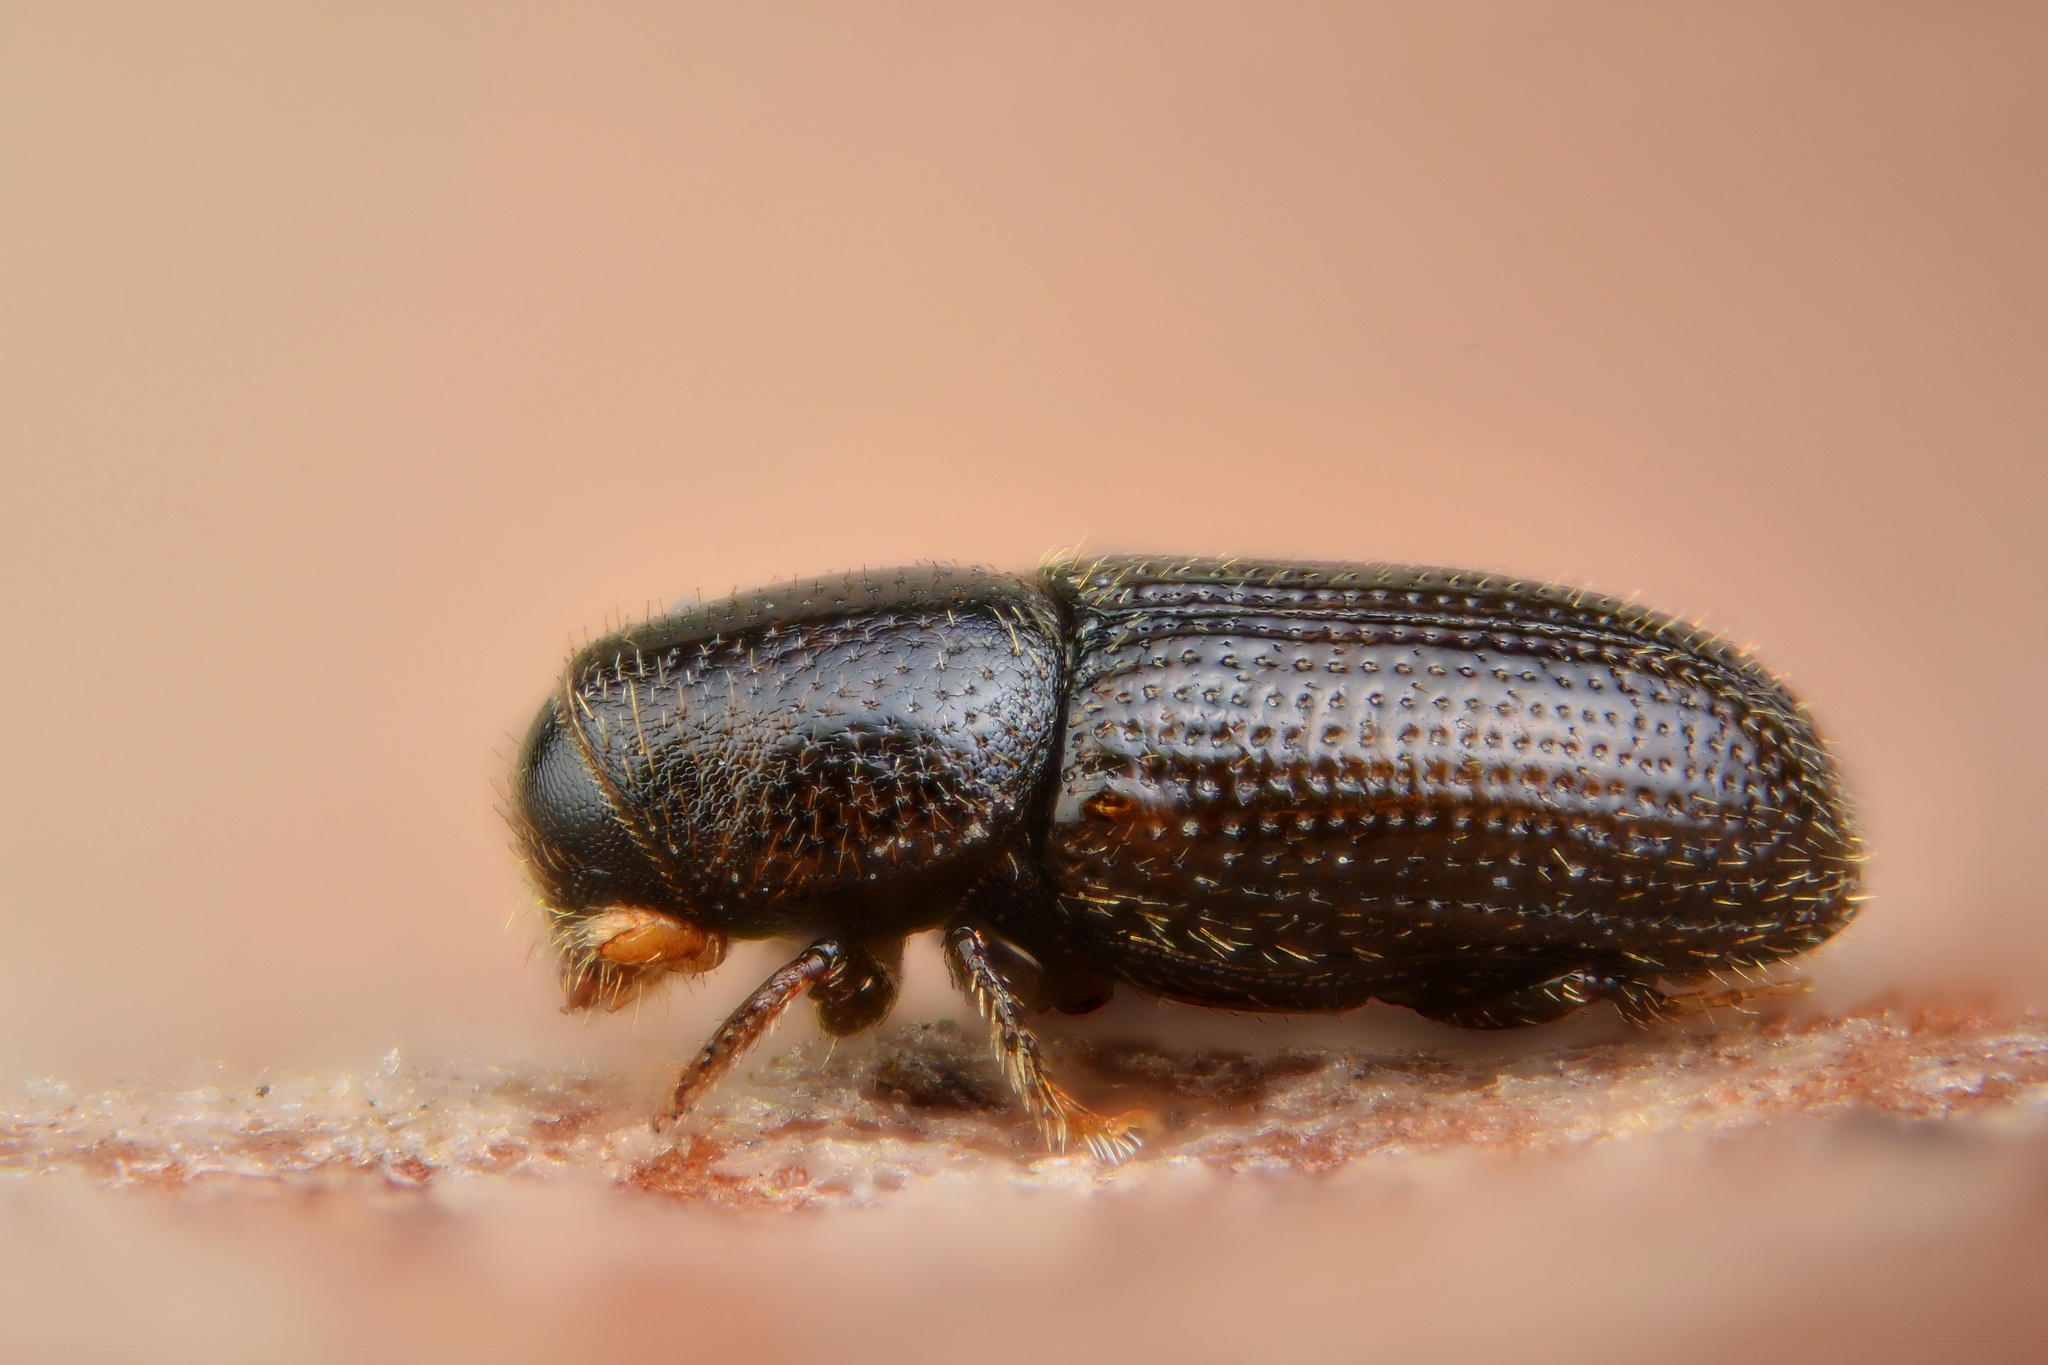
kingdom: Animalia
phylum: Arthropoda
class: Insecta
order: Coleoptera
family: Curculionidae
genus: Crypturgus
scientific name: Crypturgus pusillus
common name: Bark beetle
